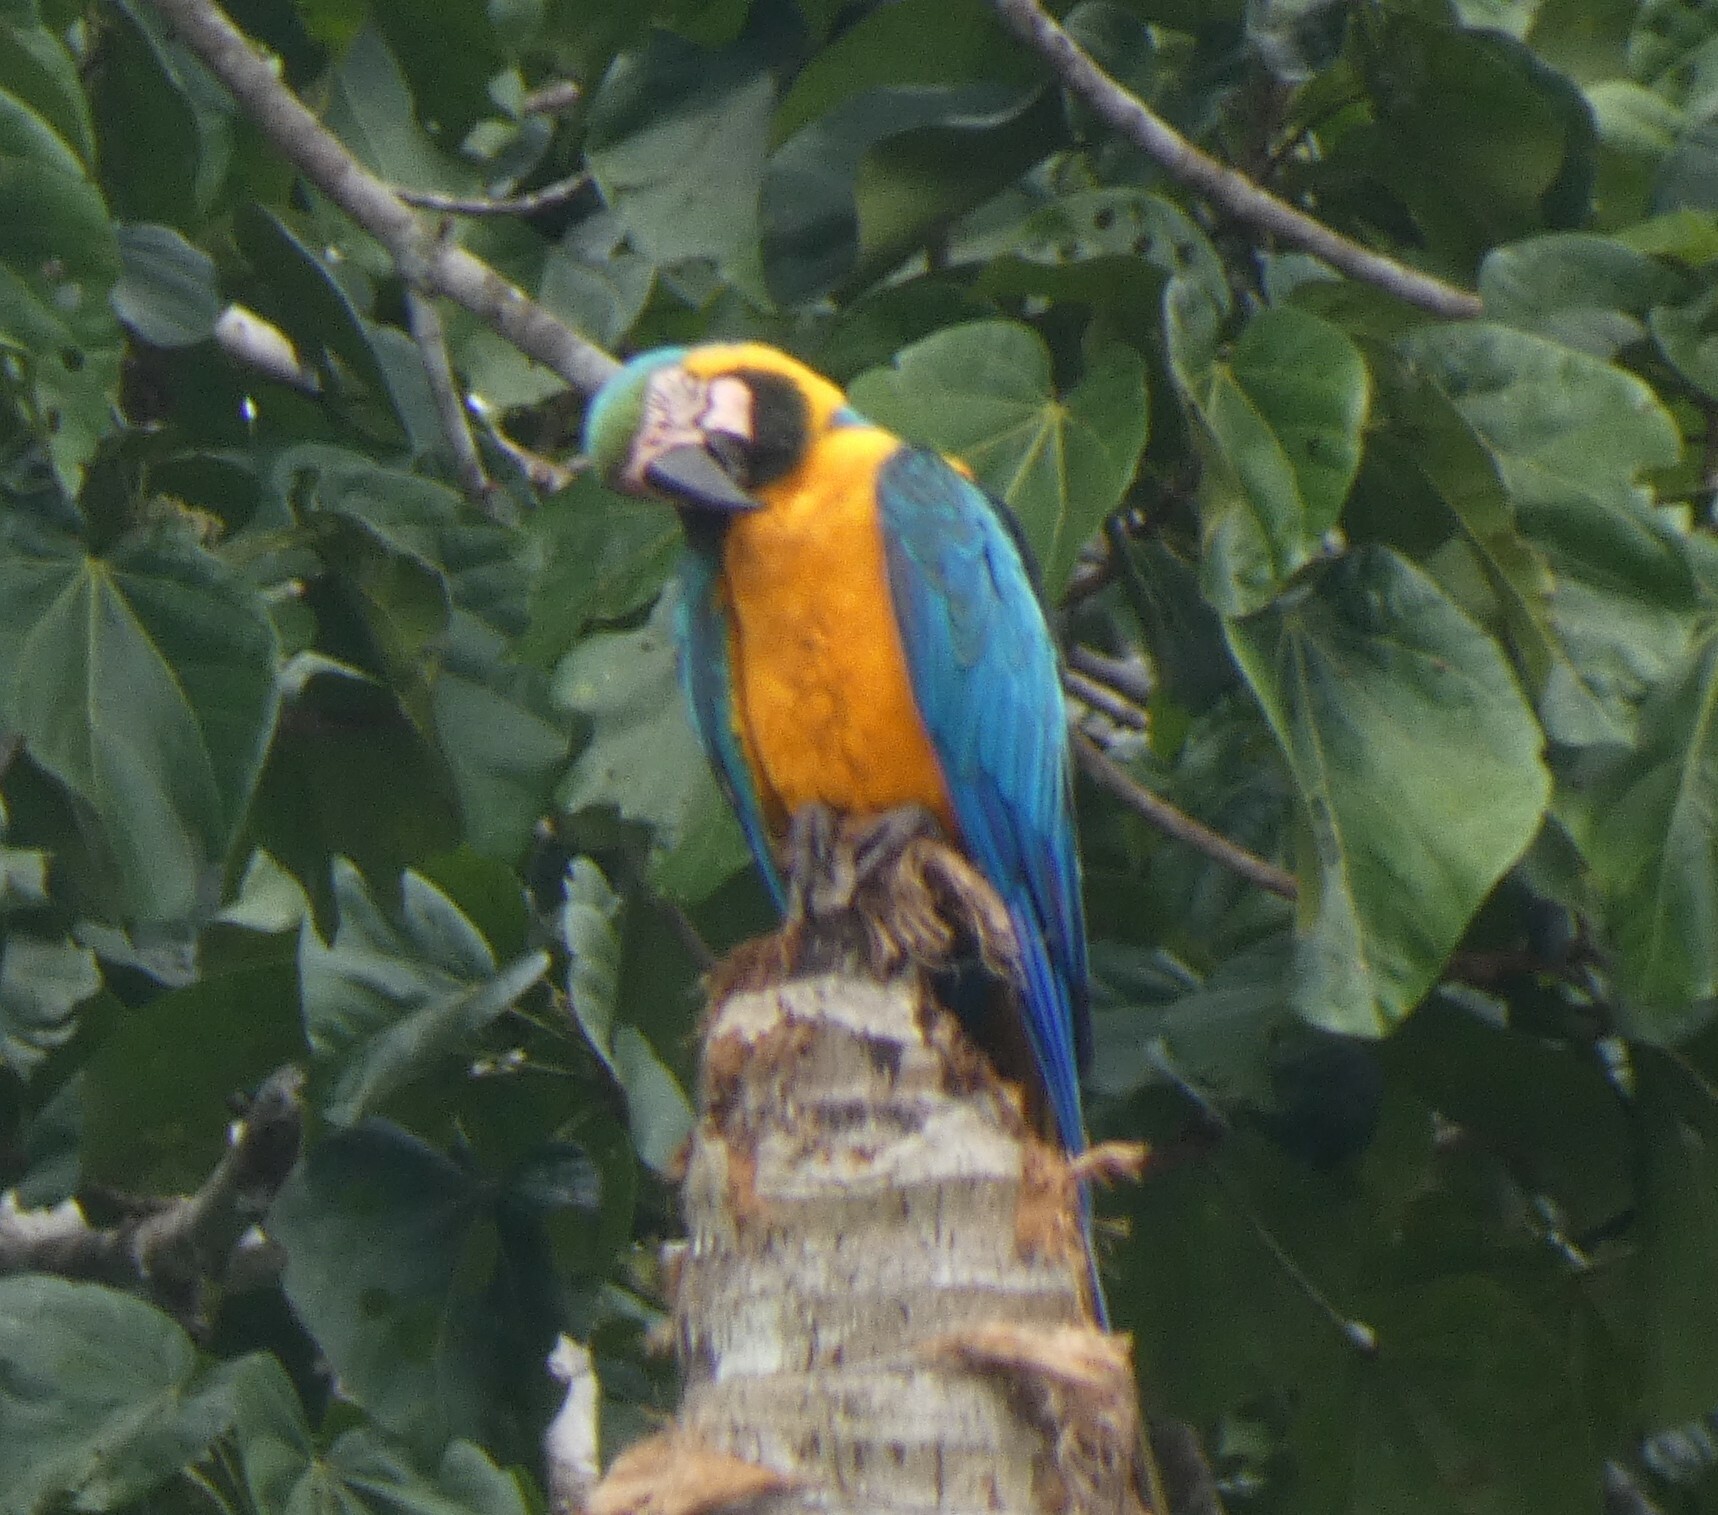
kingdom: Animalia
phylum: Chordata
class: Aves
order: Psittaciformes
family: Psittacidae
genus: Ara
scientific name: Ara ararauna
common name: Blue-and-yellow macaw
